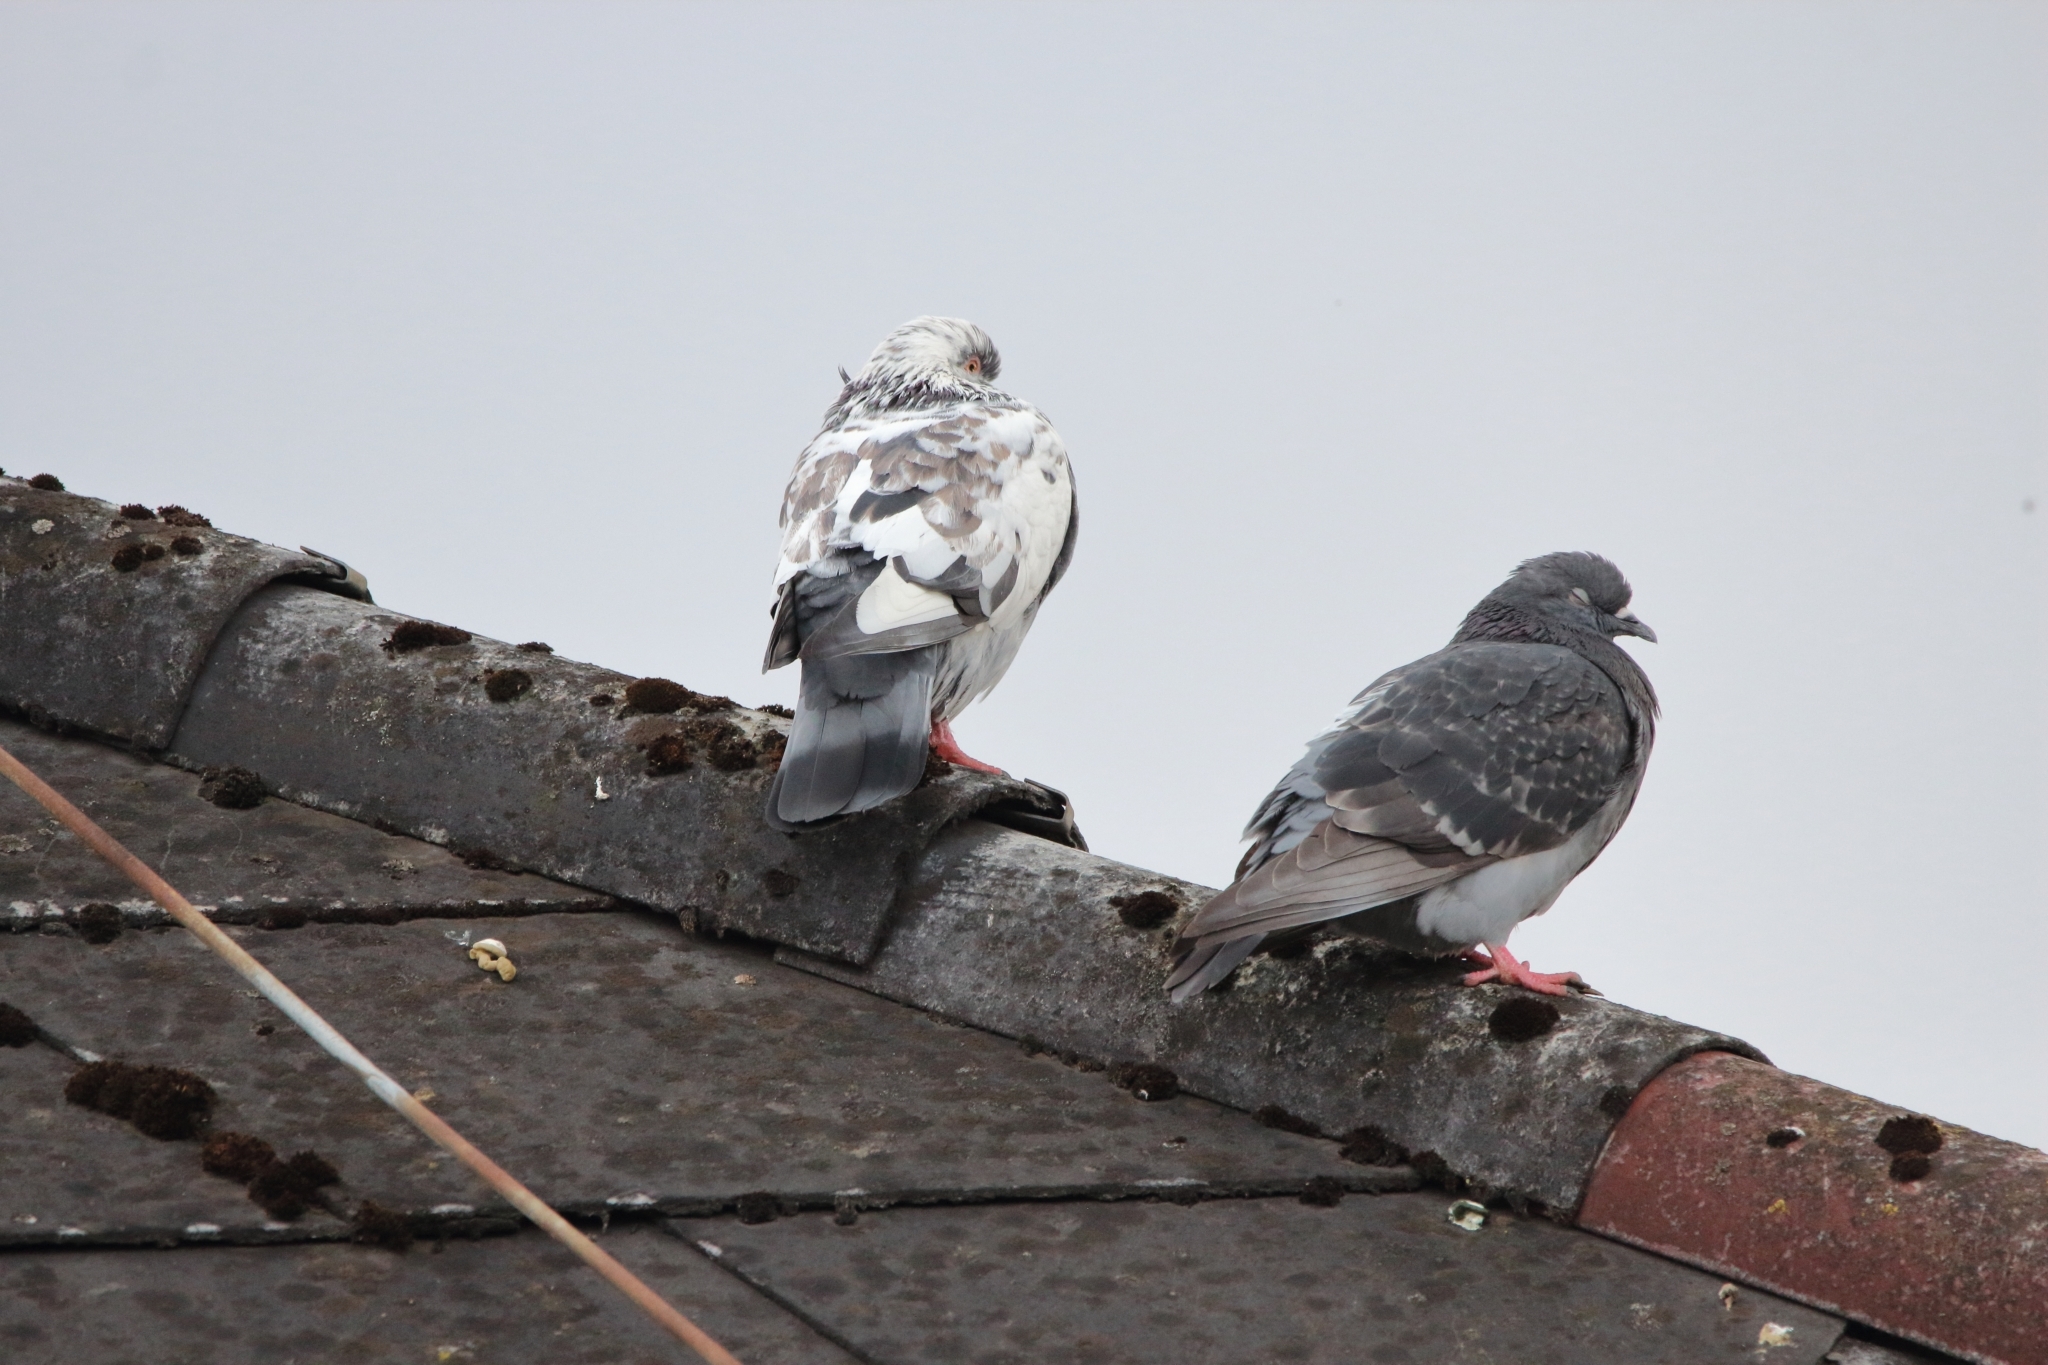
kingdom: Animalia
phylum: Chordata
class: Aves
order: Columbiformes
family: Columbidae
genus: Columba
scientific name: Columba livia
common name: Rock pigeon
